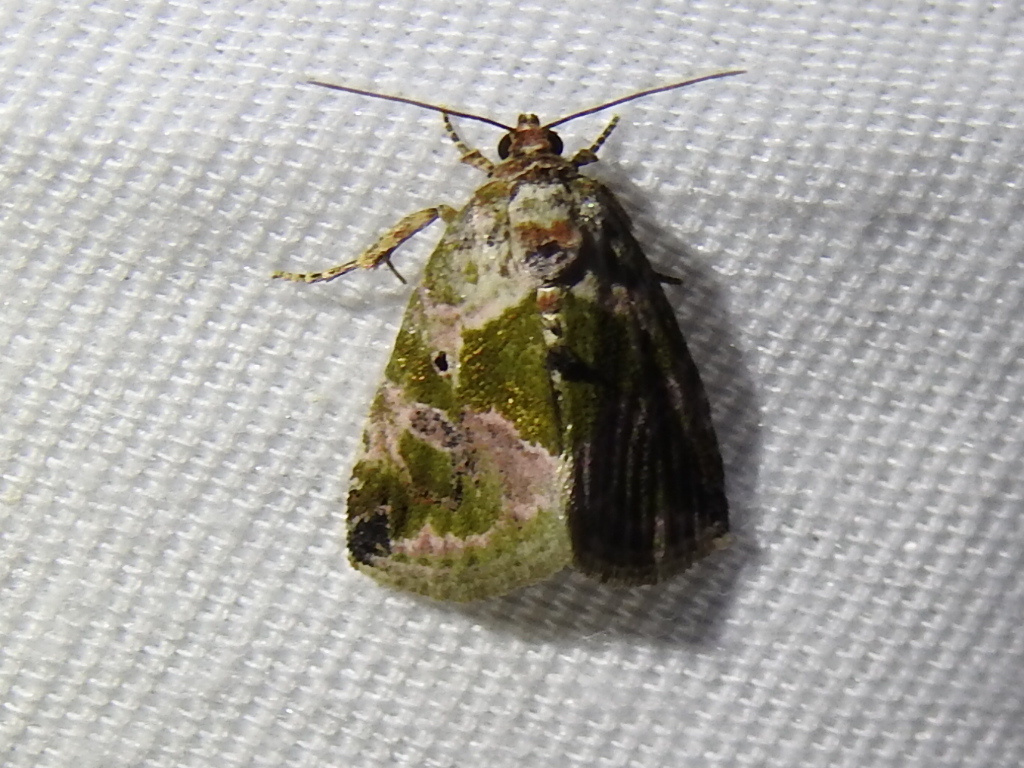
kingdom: Animalia
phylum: Arthropoda
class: Insecta
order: Lepidoptera
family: Noctuidae
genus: Maliattha
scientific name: Maliattha synochitis
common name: Black-dotted glyph
